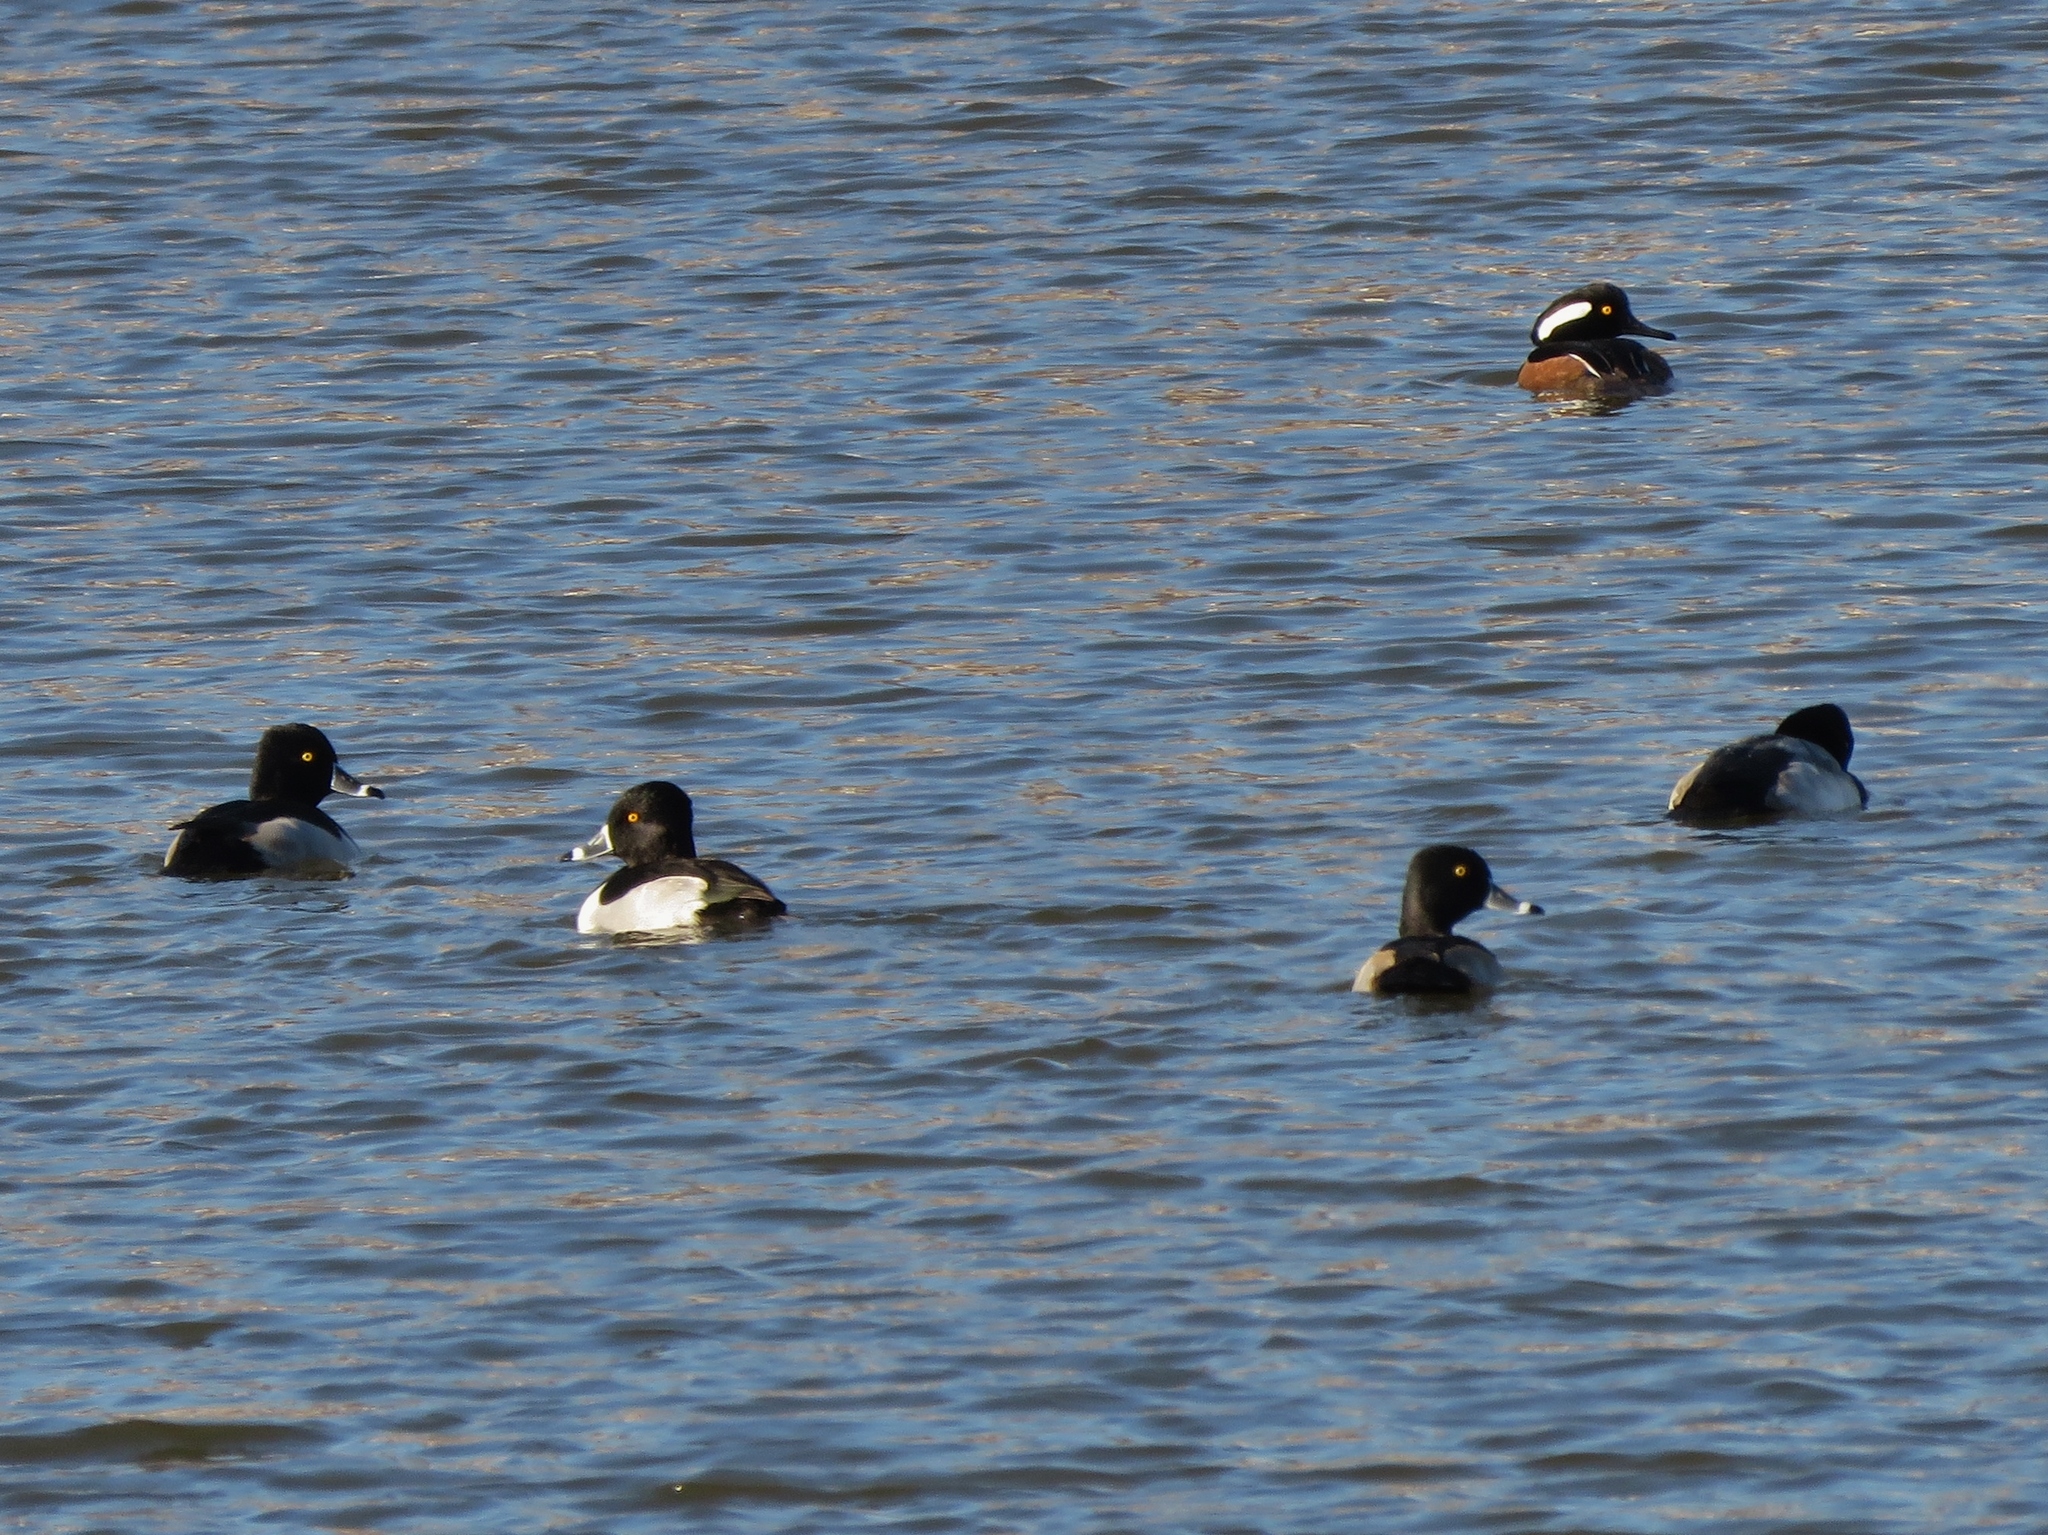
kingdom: Animalia
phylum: Chordata
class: Aves
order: Anseriformes
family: Anatidae
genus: Aythya
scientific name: Aythya collaris
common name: Ring-necked duck
